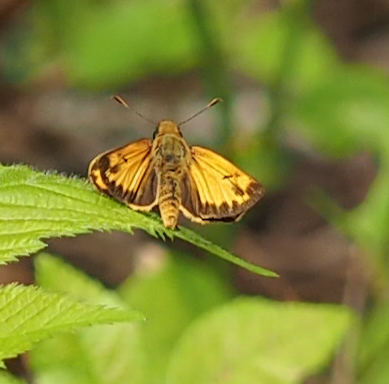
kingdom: Animalia
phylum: Arthropoda
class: Insecta
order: Lepidoptera
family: Hesperiidae
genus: Lon
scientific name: Lon zabulon
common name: Zabulon skipper
